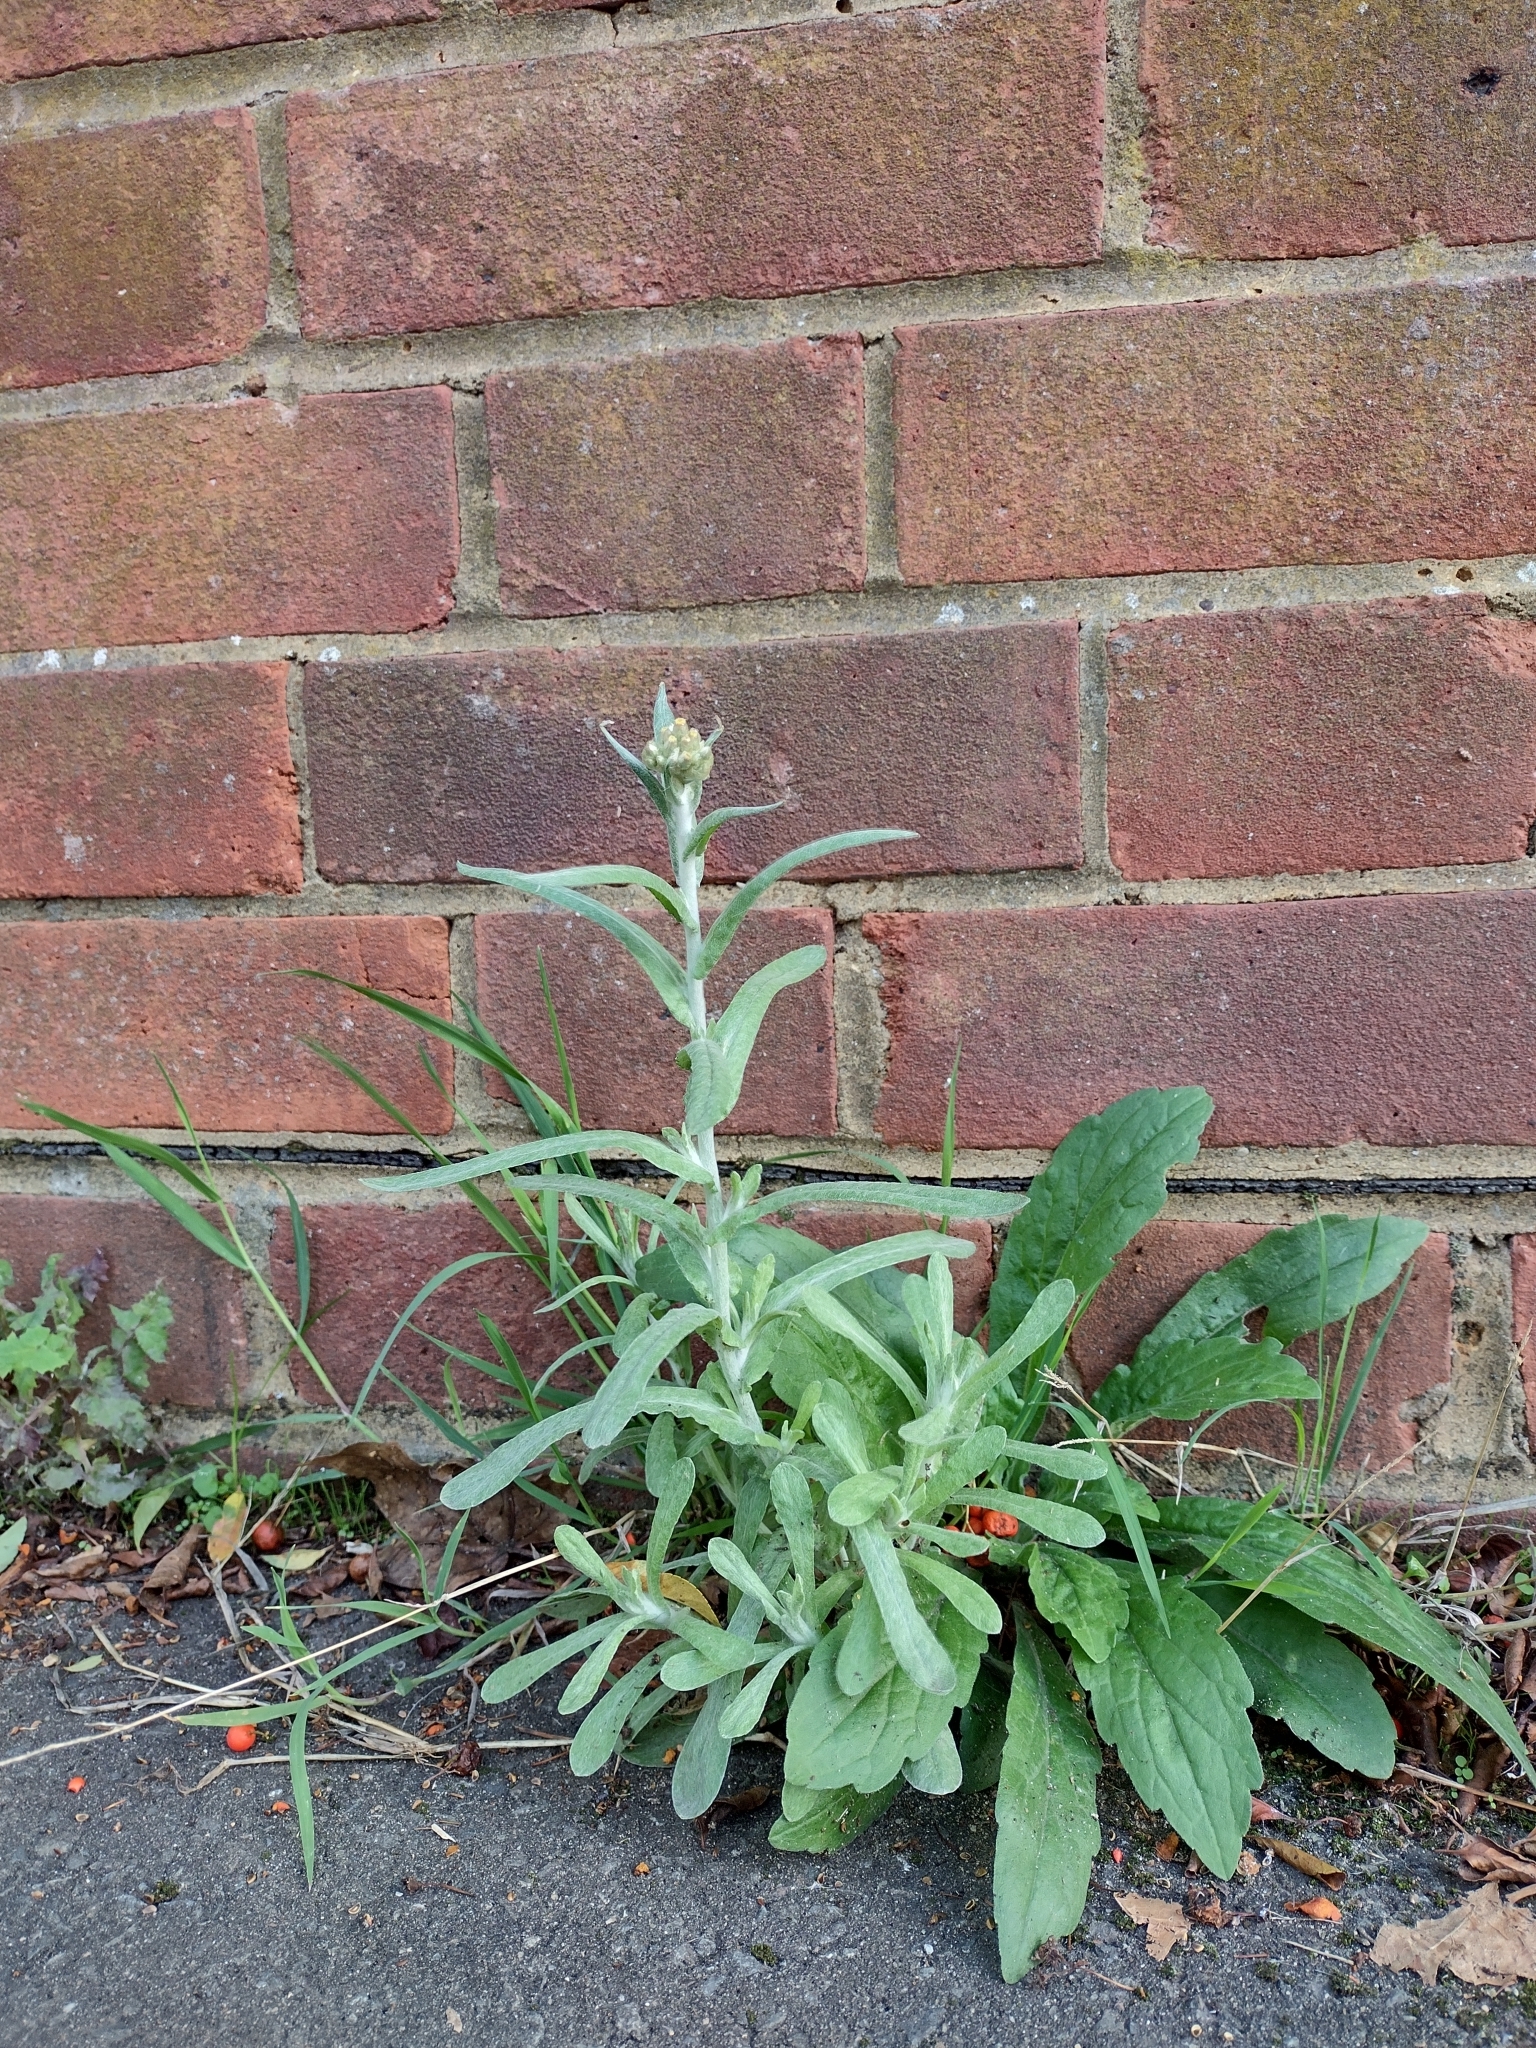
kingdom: Plantae
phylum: Tracheophyta
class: Magnoliopsida
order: Asterales
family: Asteraceae
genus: Helichrysum
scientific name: Helichrysum luteoalbum
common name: Daisy
